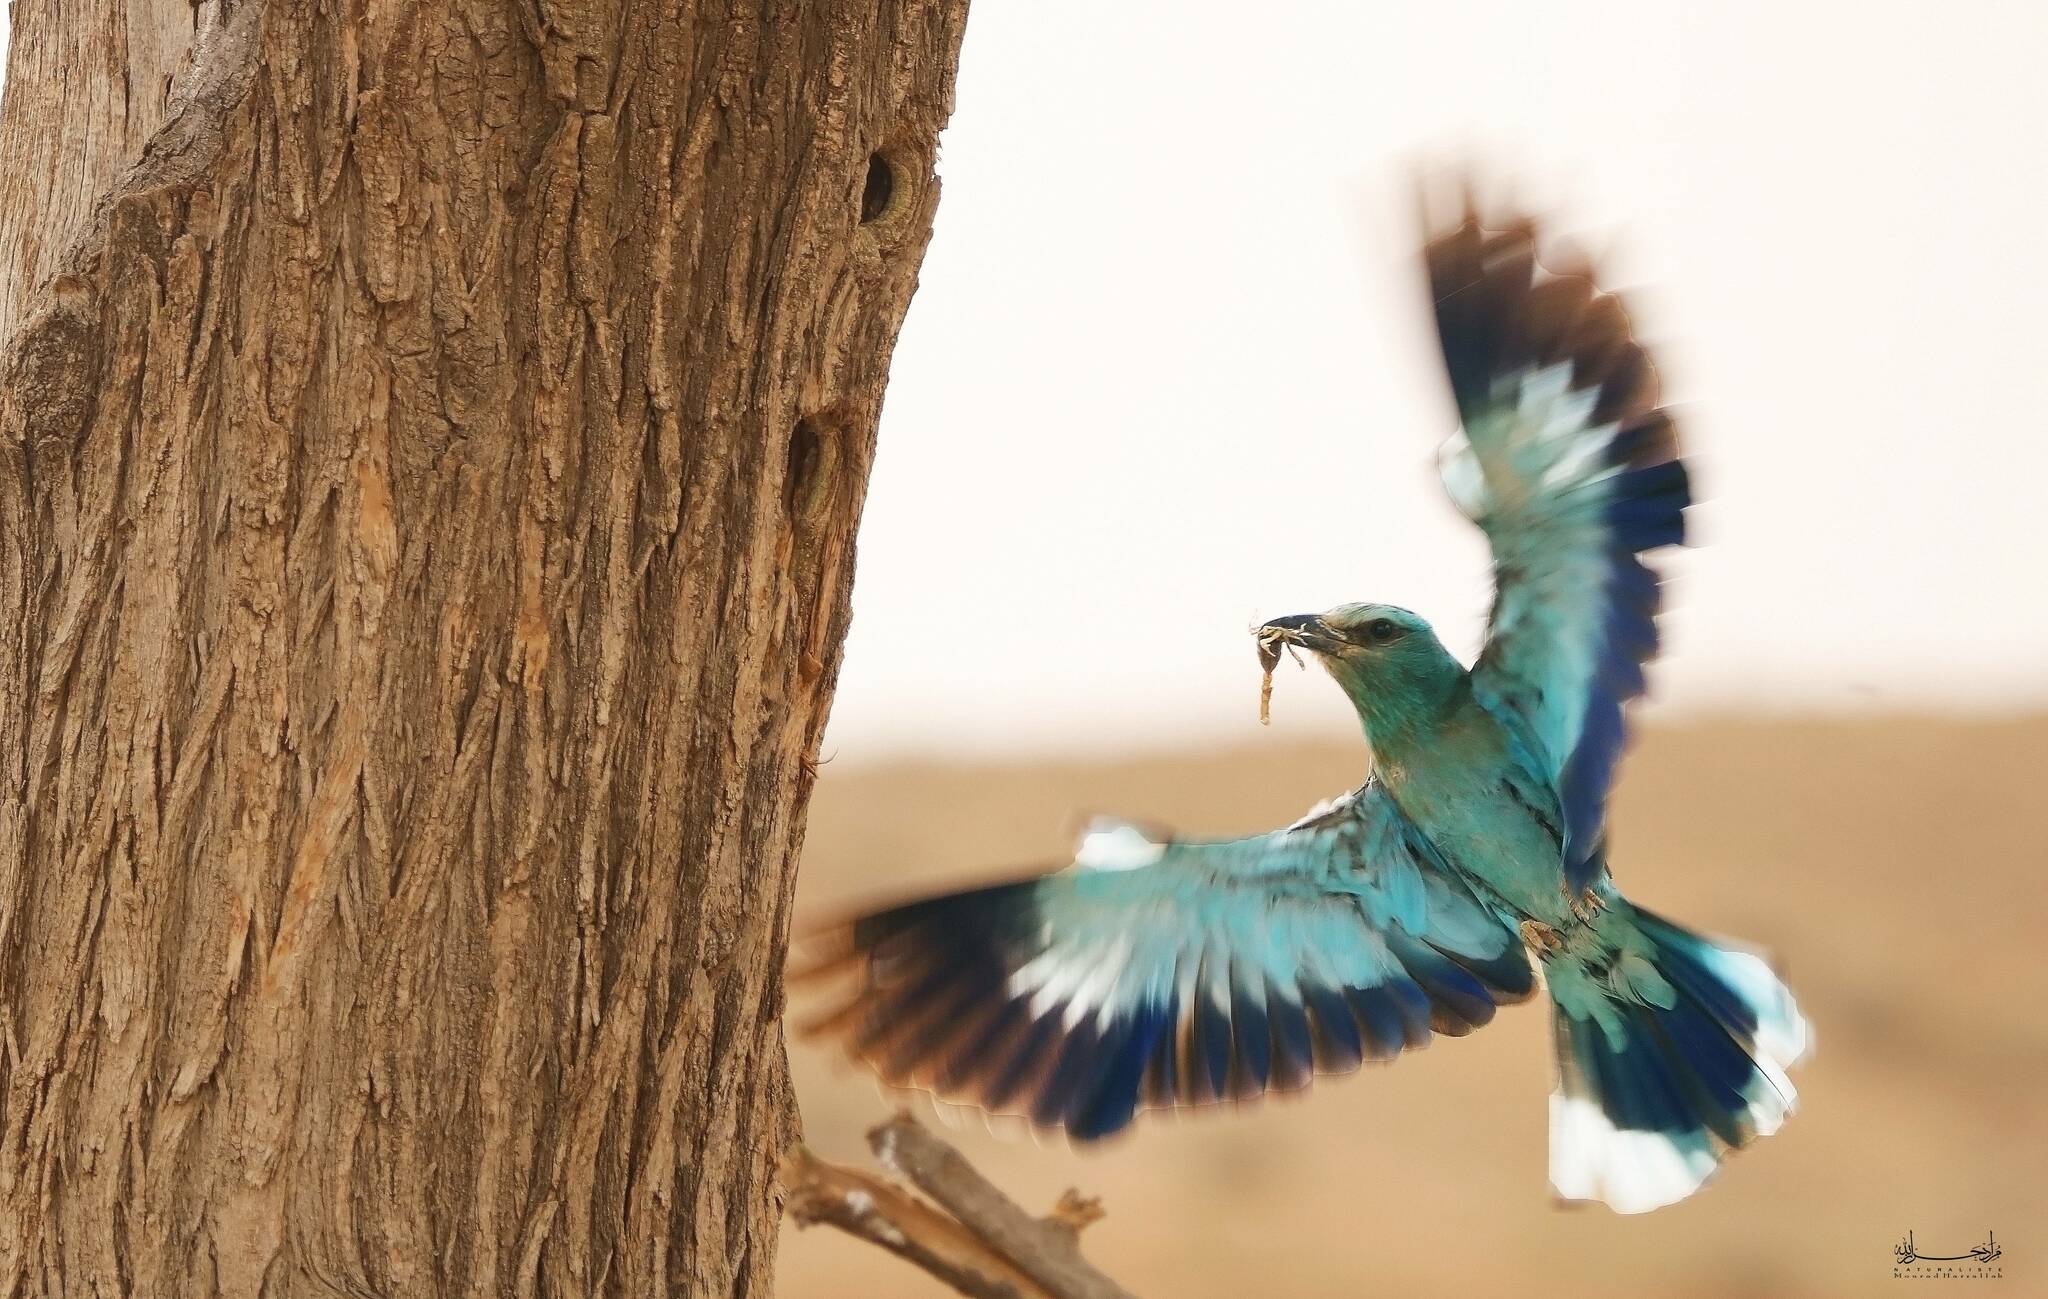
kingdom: Animalia
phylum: Chordata
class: Aves
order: Coraciiformes
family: Coraciidae
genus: Coracias
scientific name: Coracias garrulus
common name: European roller
